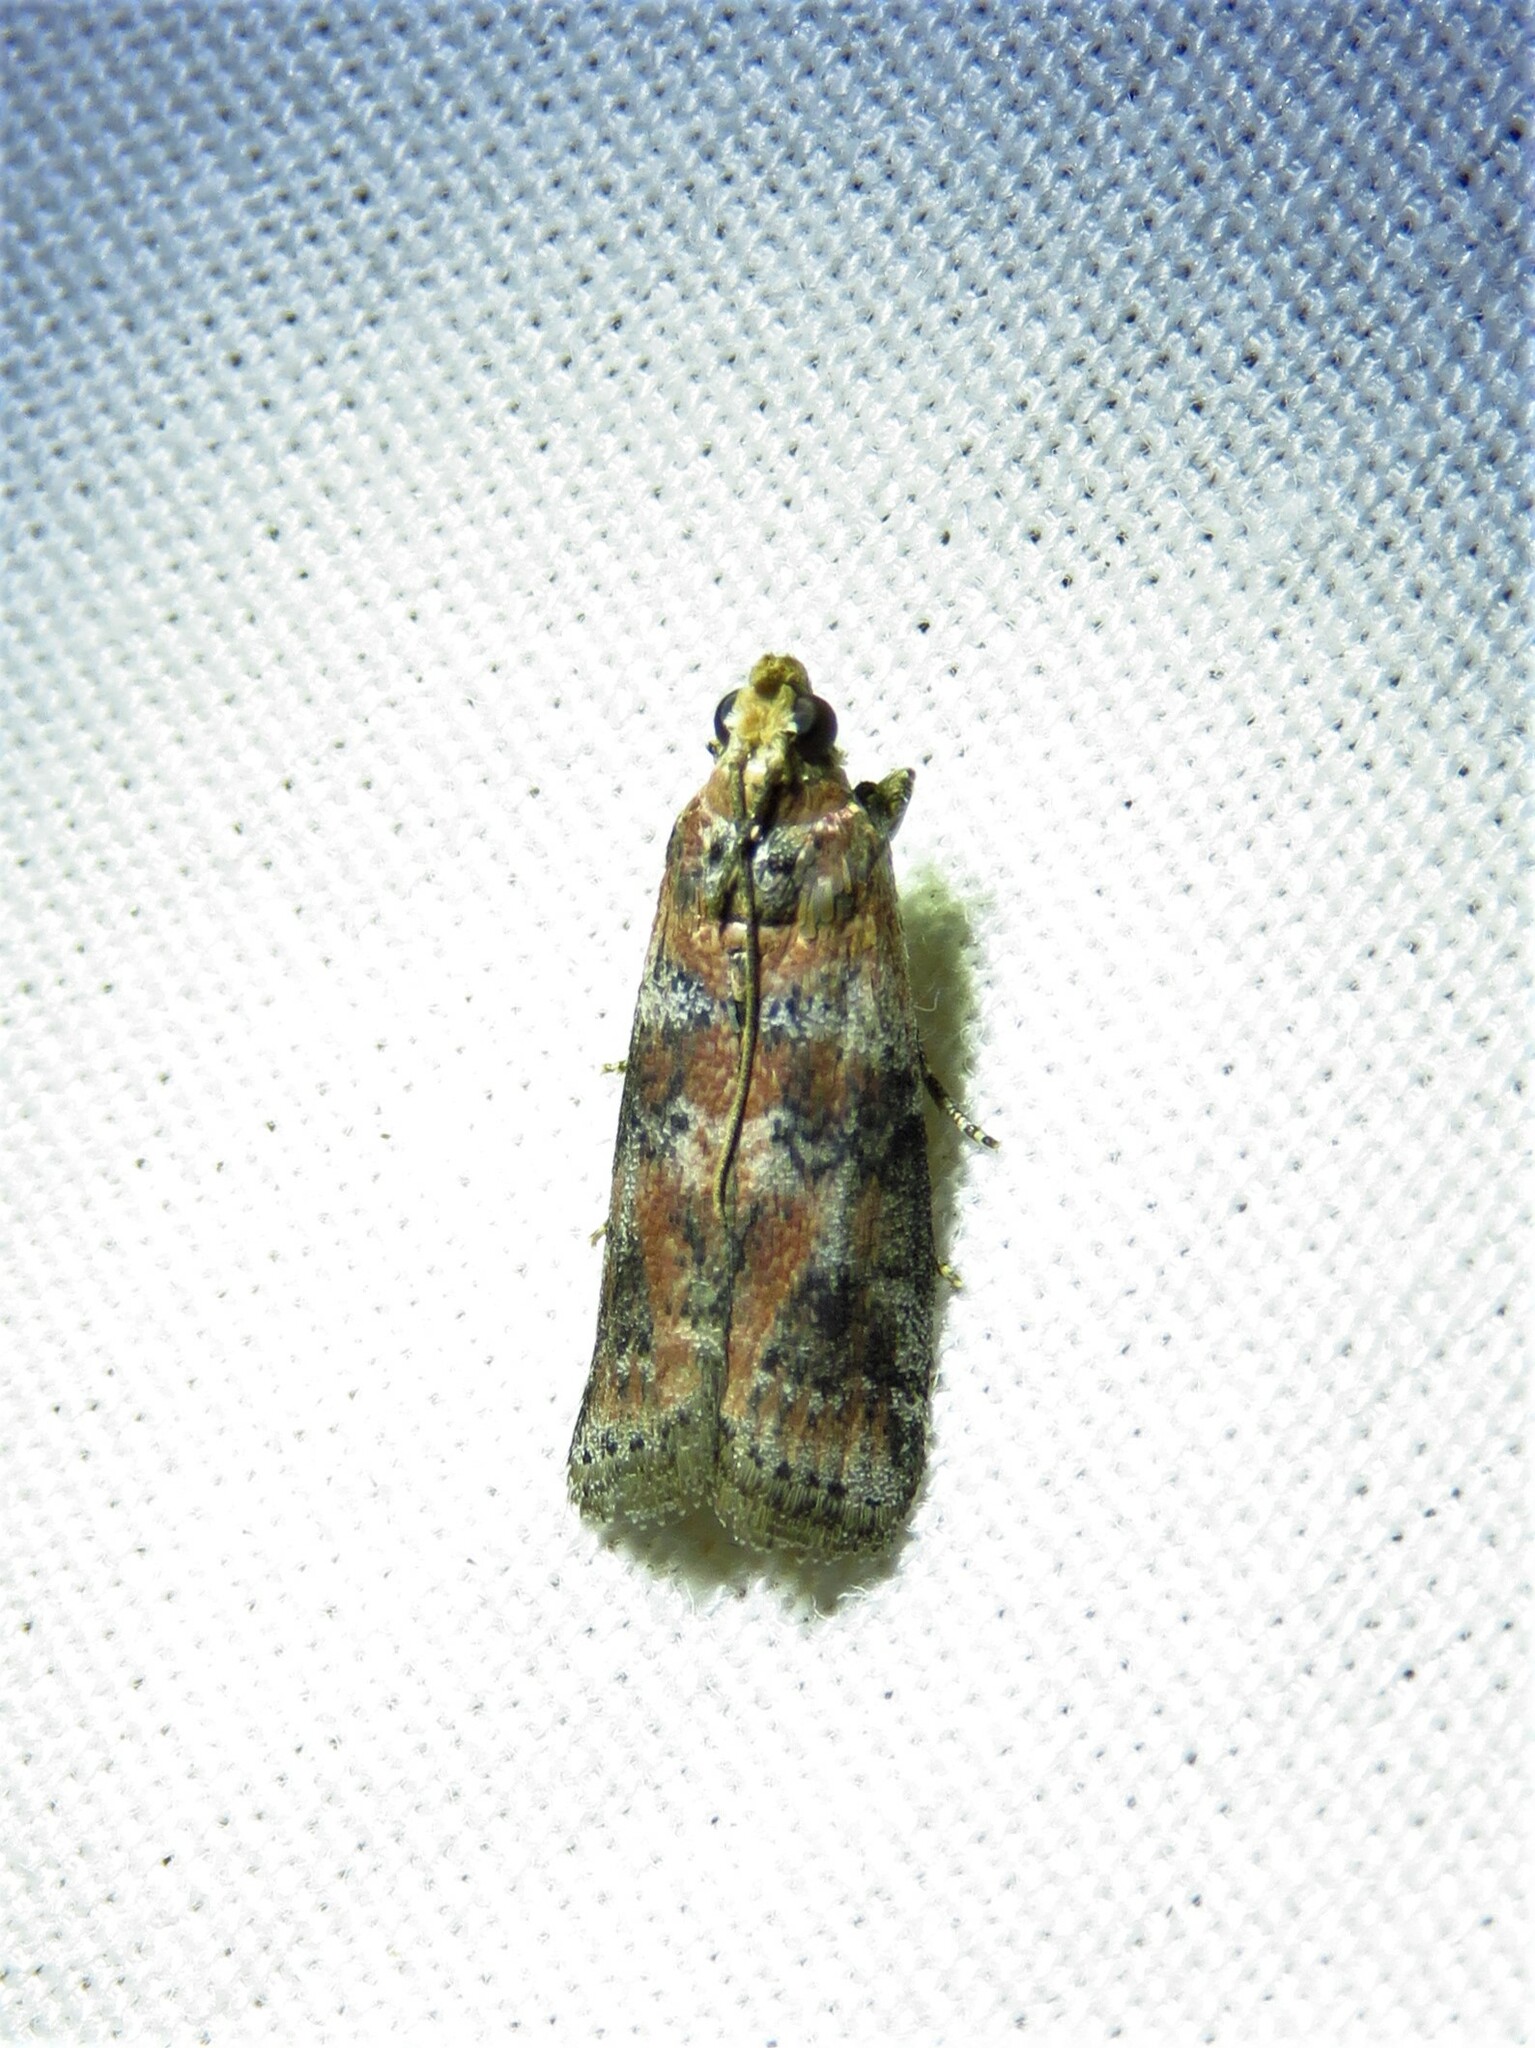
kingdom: Animalia
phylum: Arthropoda
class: Insecta
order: Lepidoptera
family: Pyralidae
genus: Sciota
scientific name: Sciota
